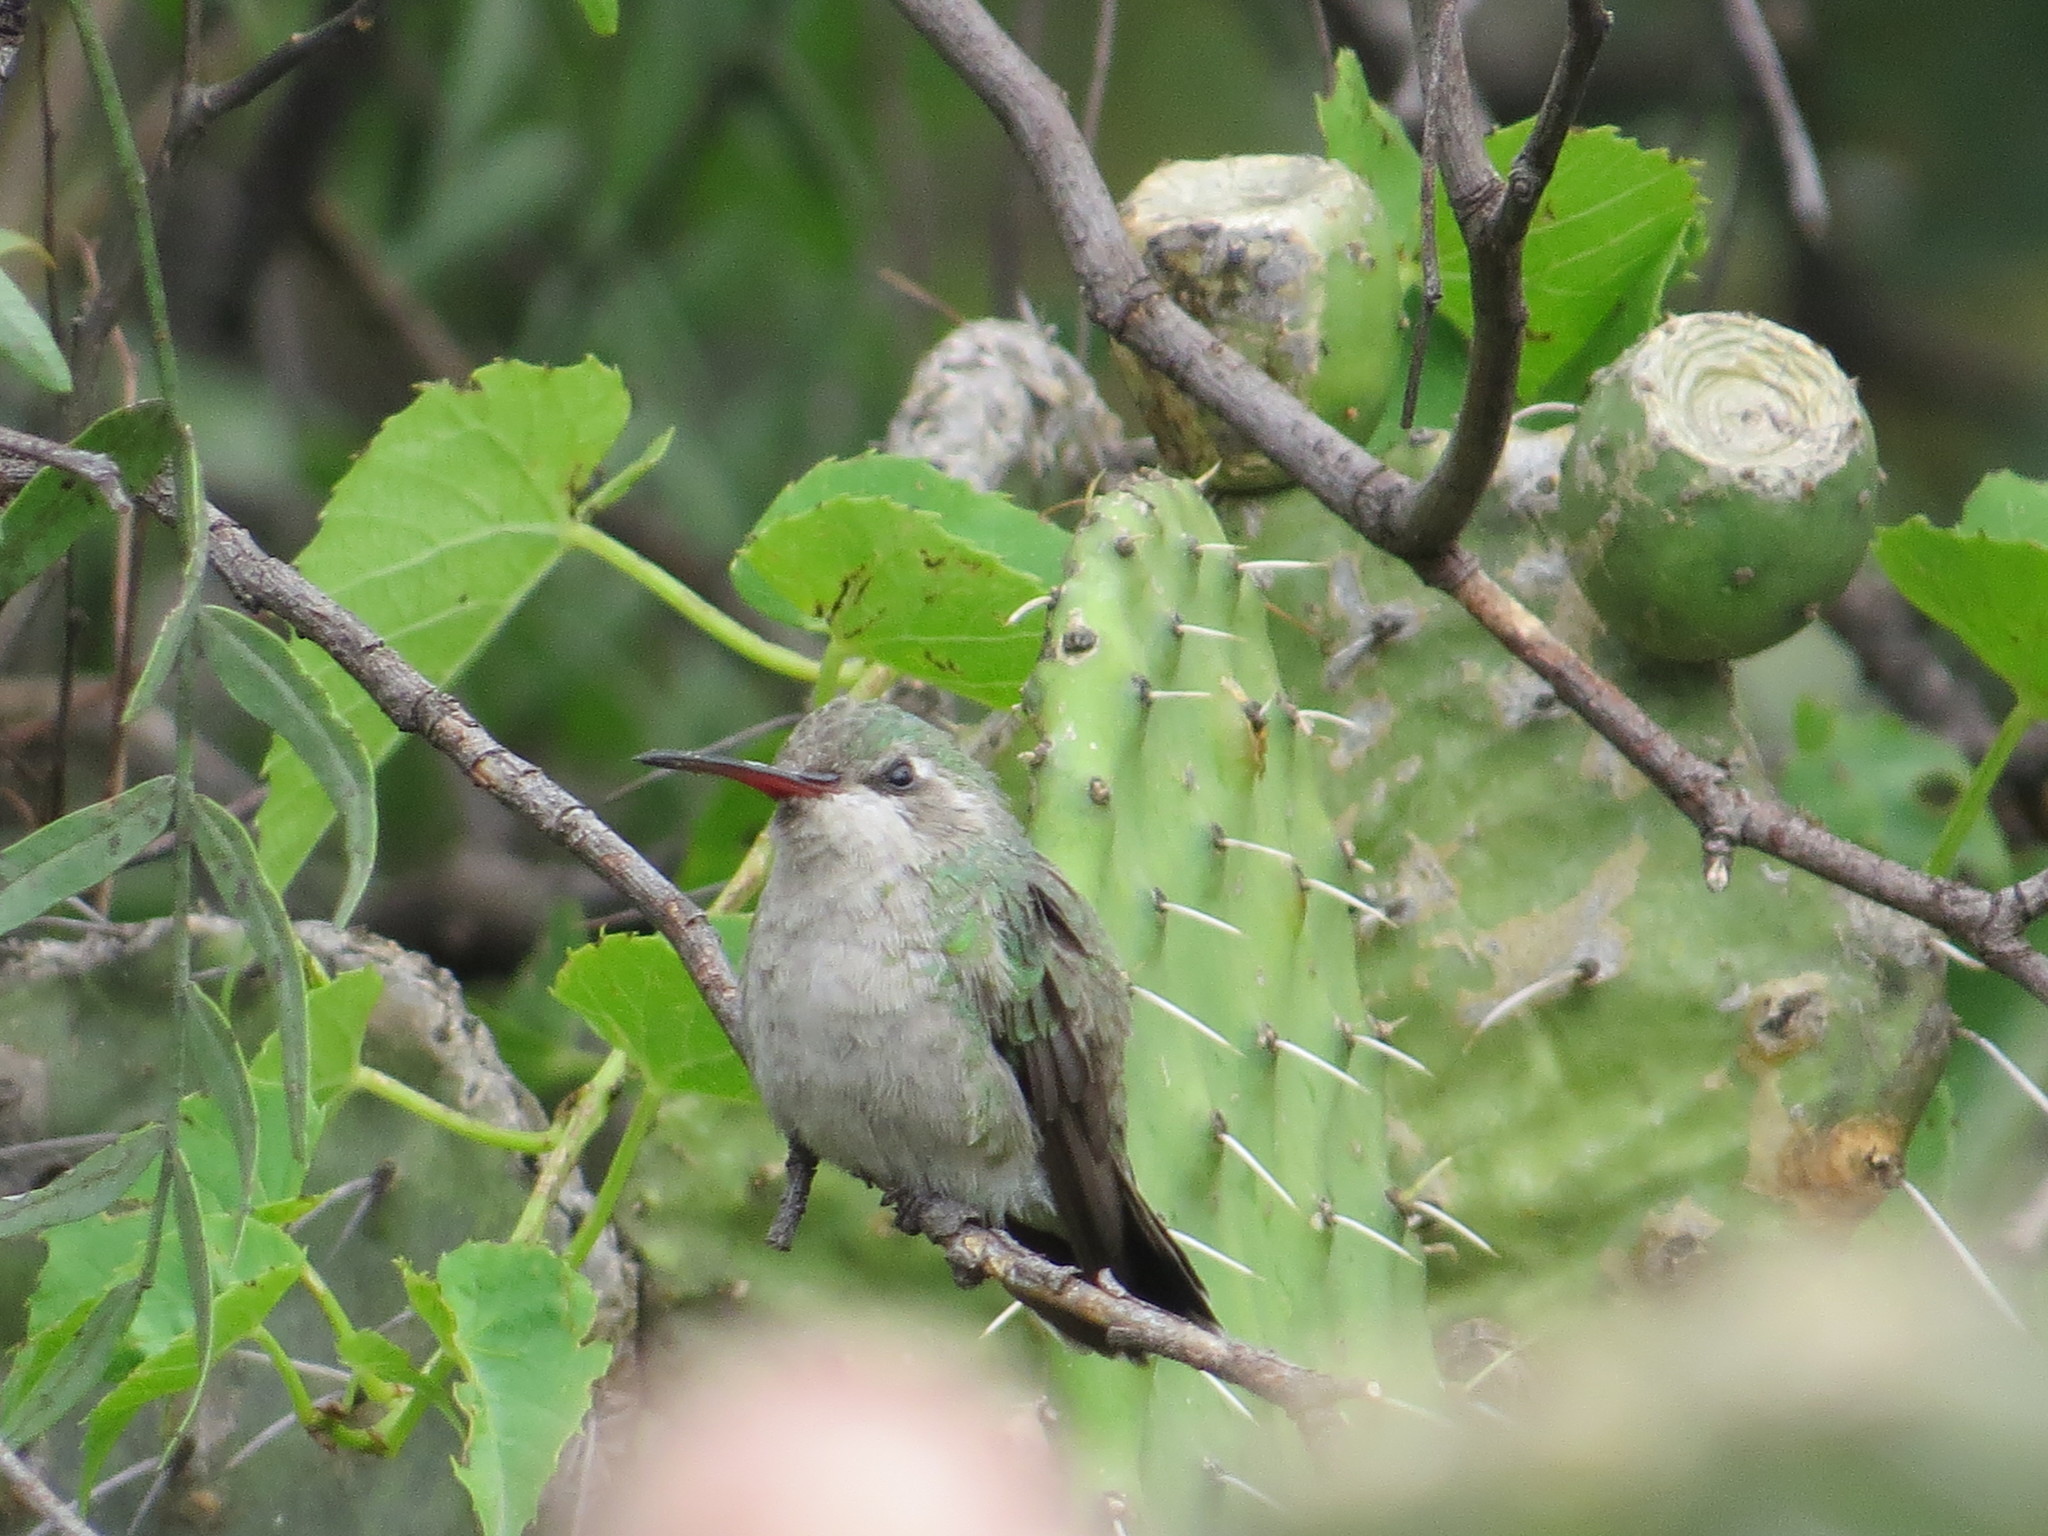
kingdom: Animalia
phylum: Chordata
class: Aves
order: Apodiformes
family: Trochilidae
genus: Cynanthus
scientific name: Cynanthus latirostris
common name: Broad-billed hummingbird
